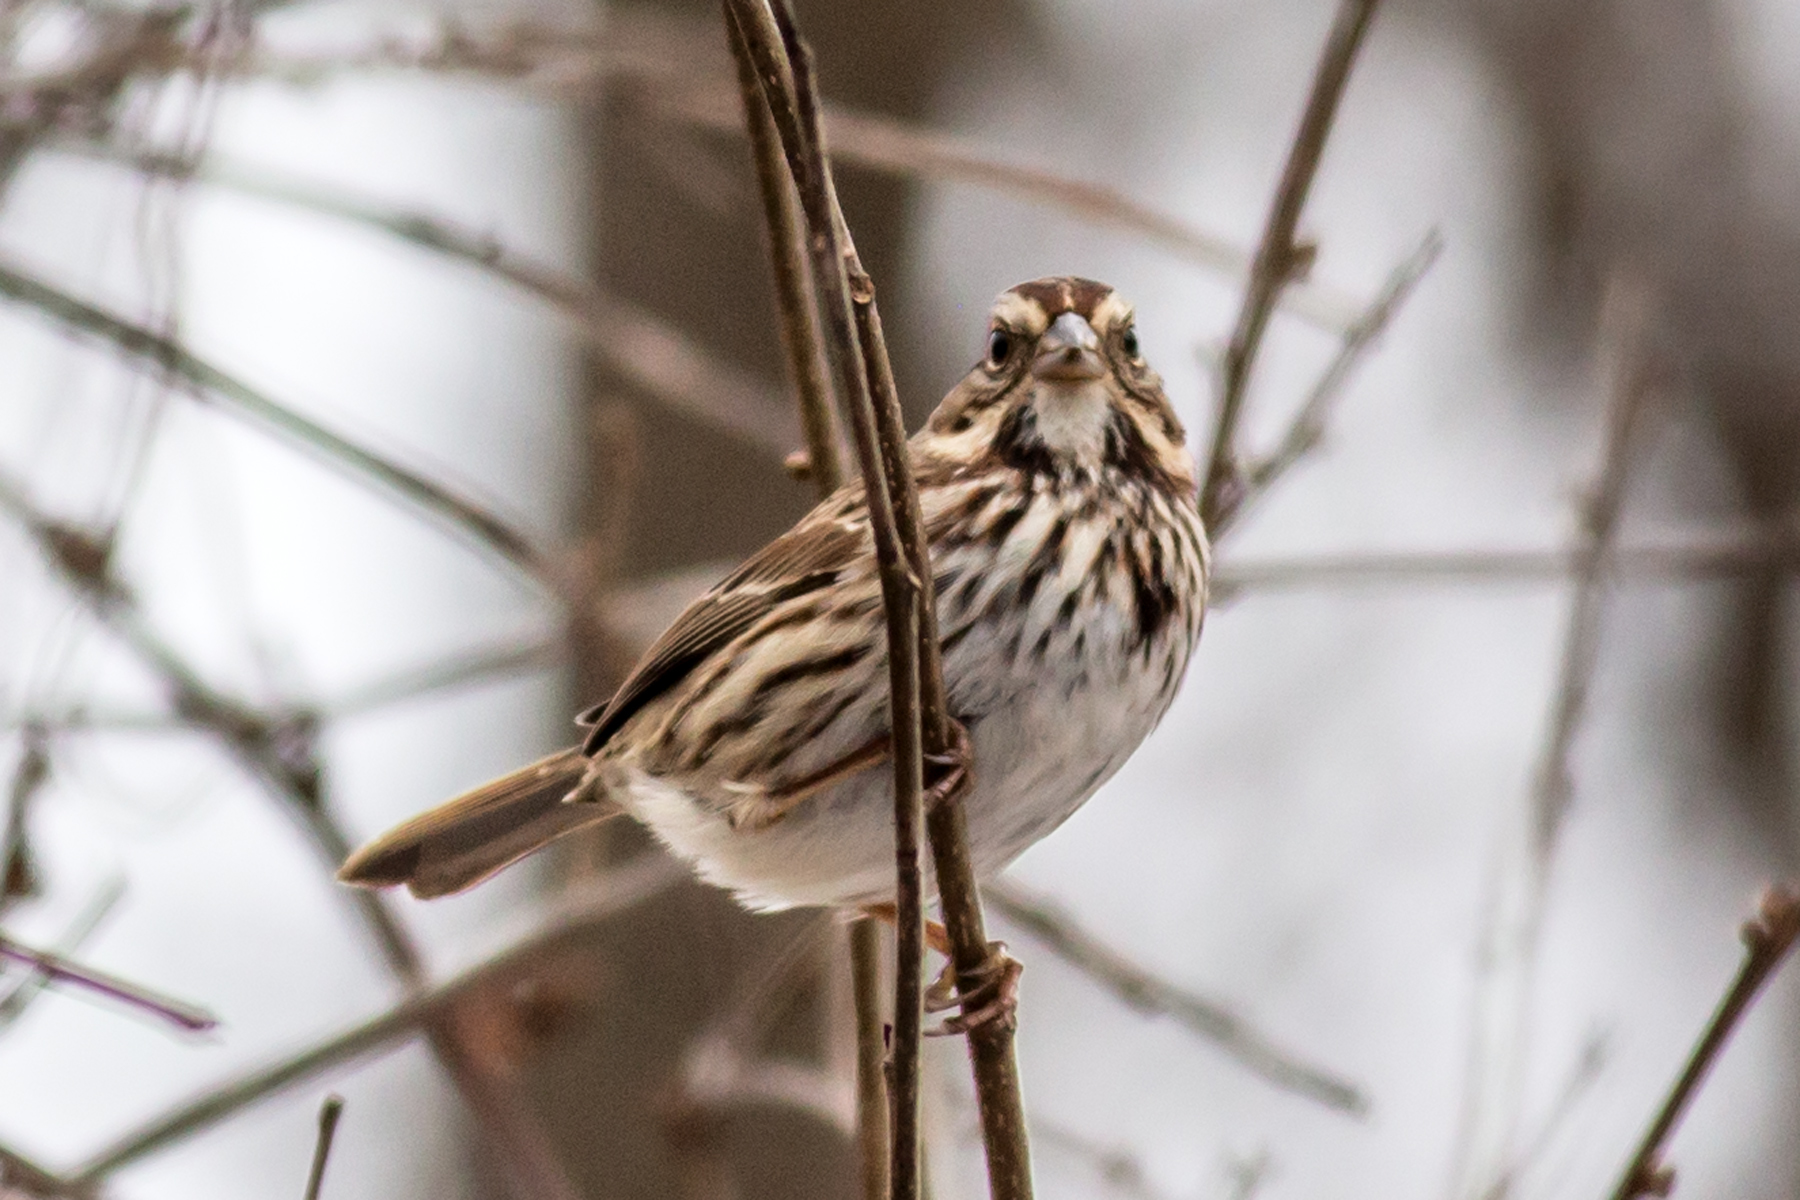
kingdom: Animalia
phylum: Chordata
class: Aves
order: Passeriformes
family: Passerellidae
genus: Melospiza
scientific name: Melospiza melodia
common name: Song sparrow
